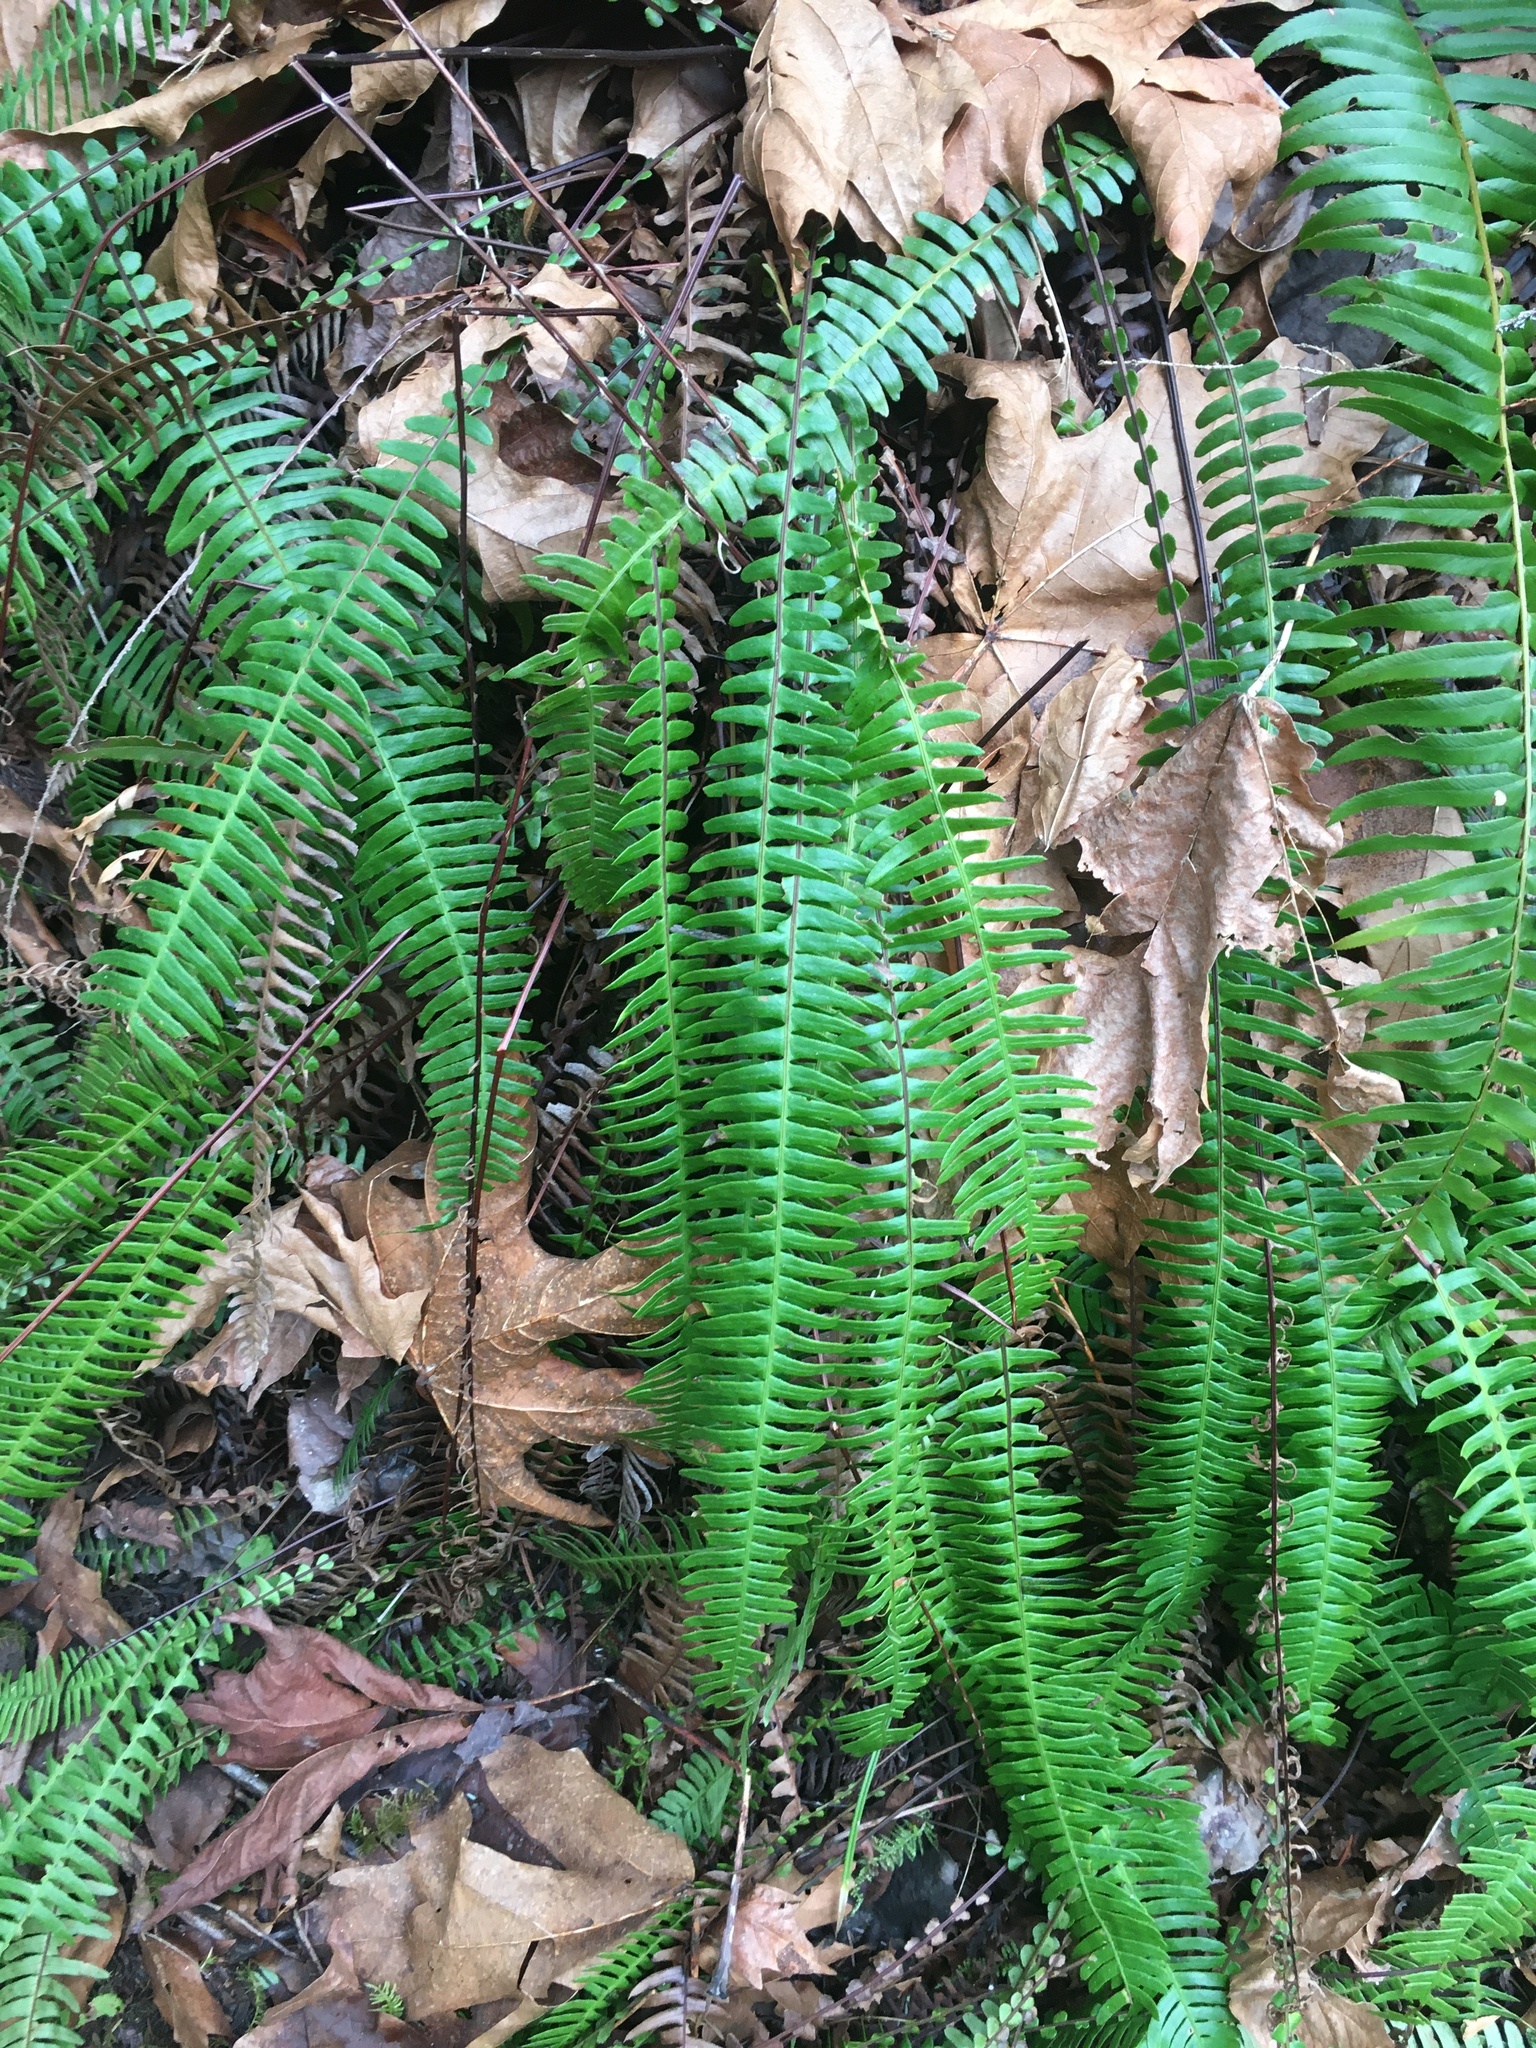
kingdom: Plantae
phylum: Tracheophyta
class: Polypodiopsida
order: Polypodiales
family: Blechnaceae
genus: Struthiopteris
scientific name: Struthiopteris spicant
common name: Deer fern
